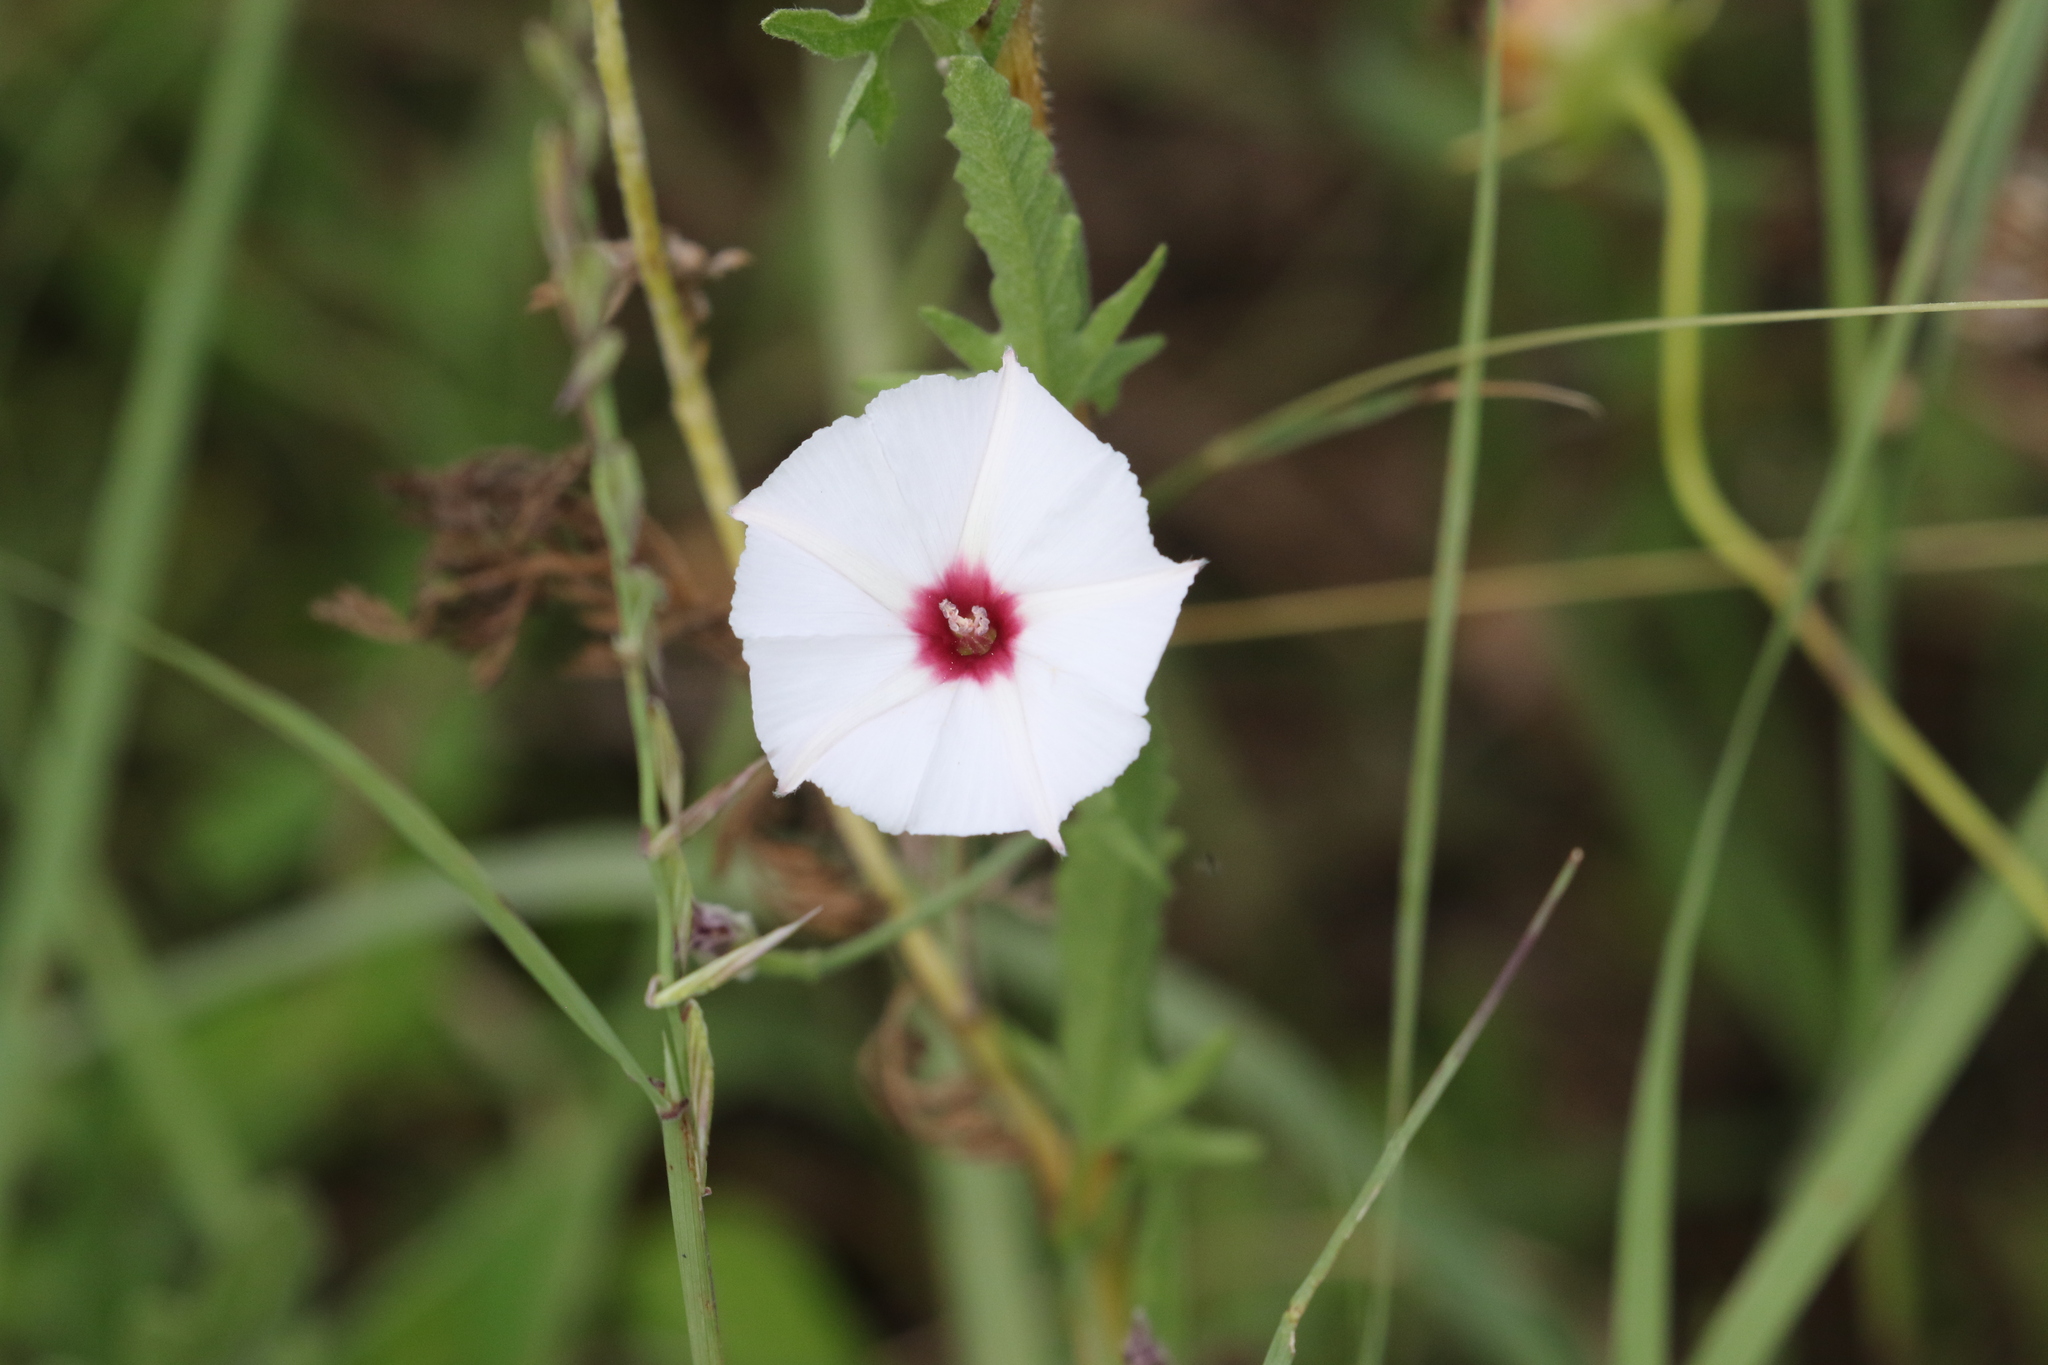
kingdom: Plantae
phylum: Tracheophyta
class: Magnoliopsida
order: Solanales
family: Convolvulaceae
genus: Convolvulus
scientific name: Convolvulus equitans
